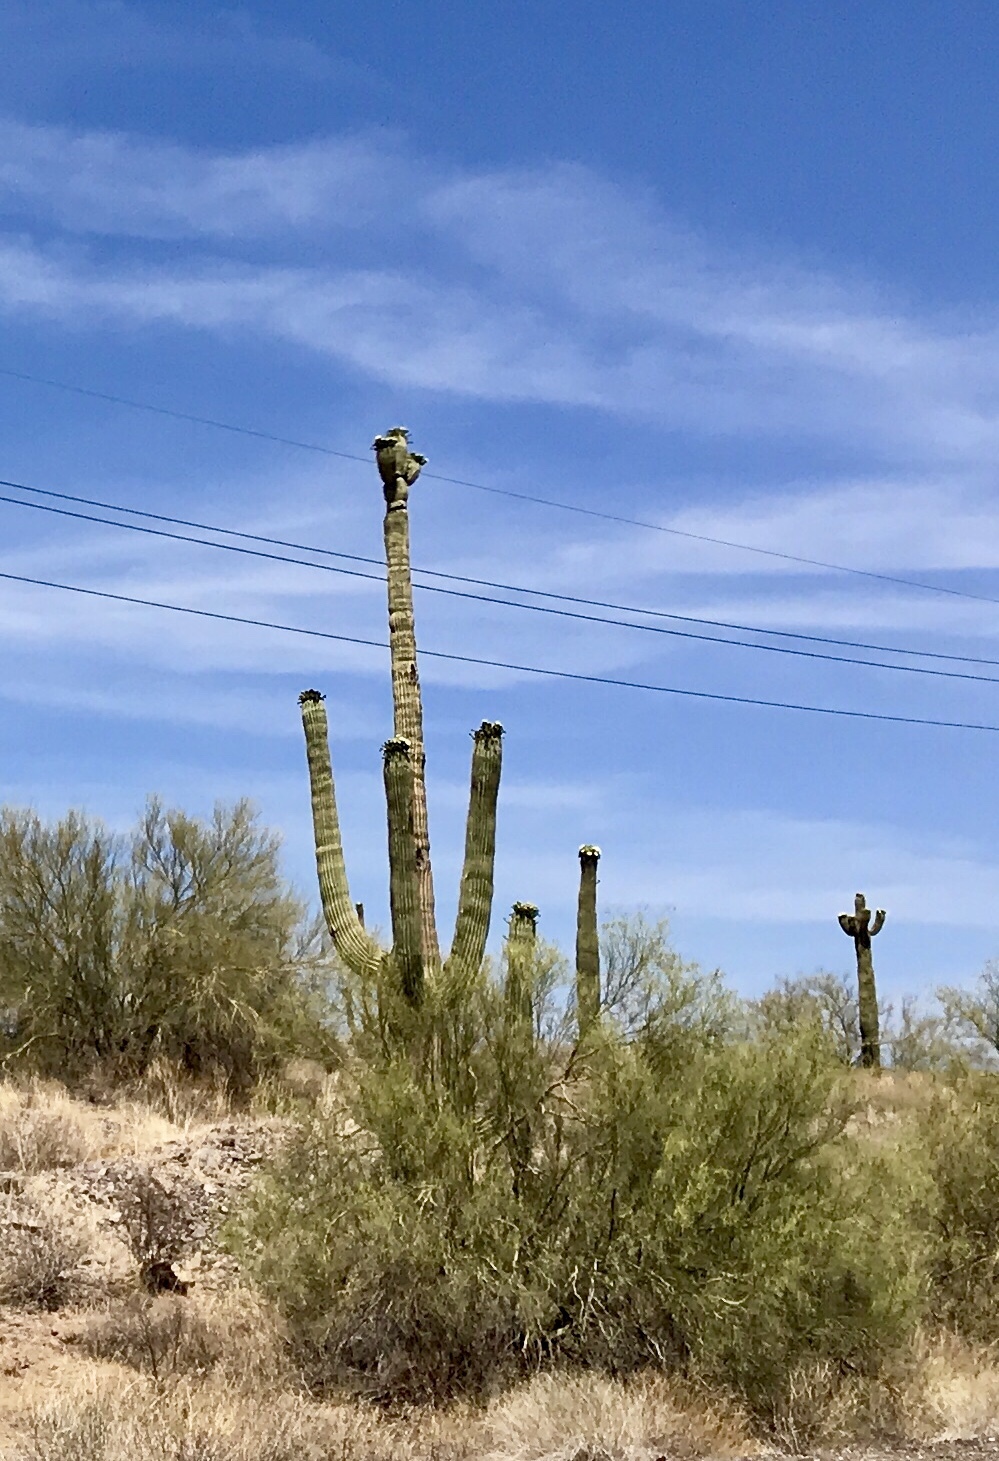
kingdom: Plantae
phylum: Tracheophyta
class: Magnoliopsida
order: Caryophyllales
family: Cactaceae
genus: Carnegiea
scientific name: Carnegiea gigantea
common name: Saguaro
